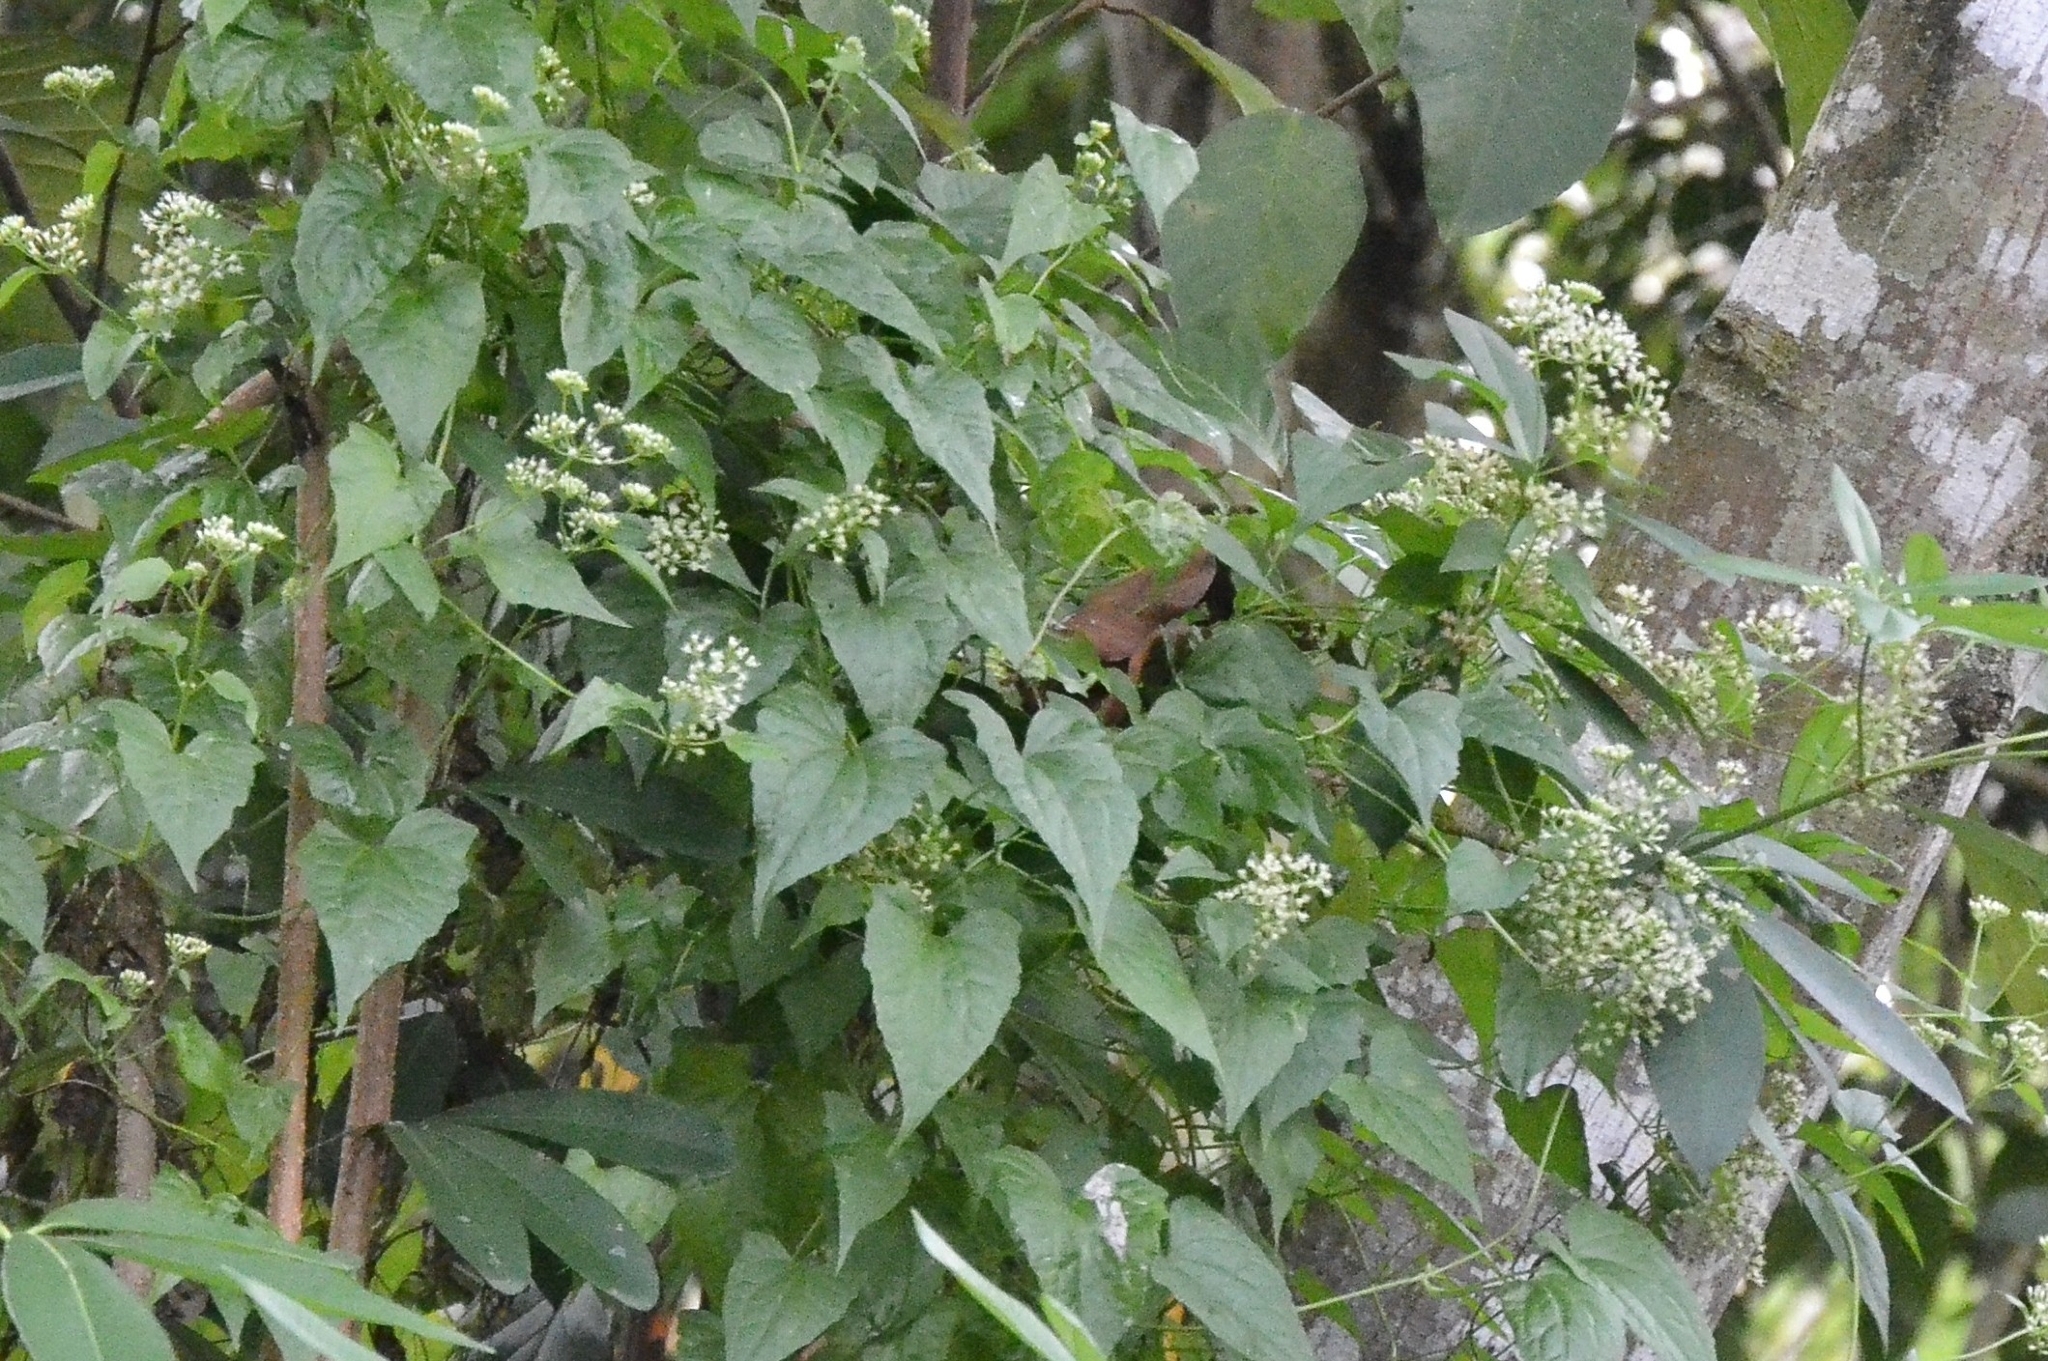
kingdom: Plantae
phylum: Tracheophyta
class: Magnoliopsida
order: Asterales
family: Asteraceae
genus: Mikania
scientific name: Mikania micrantha
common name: Mile-a-minute
